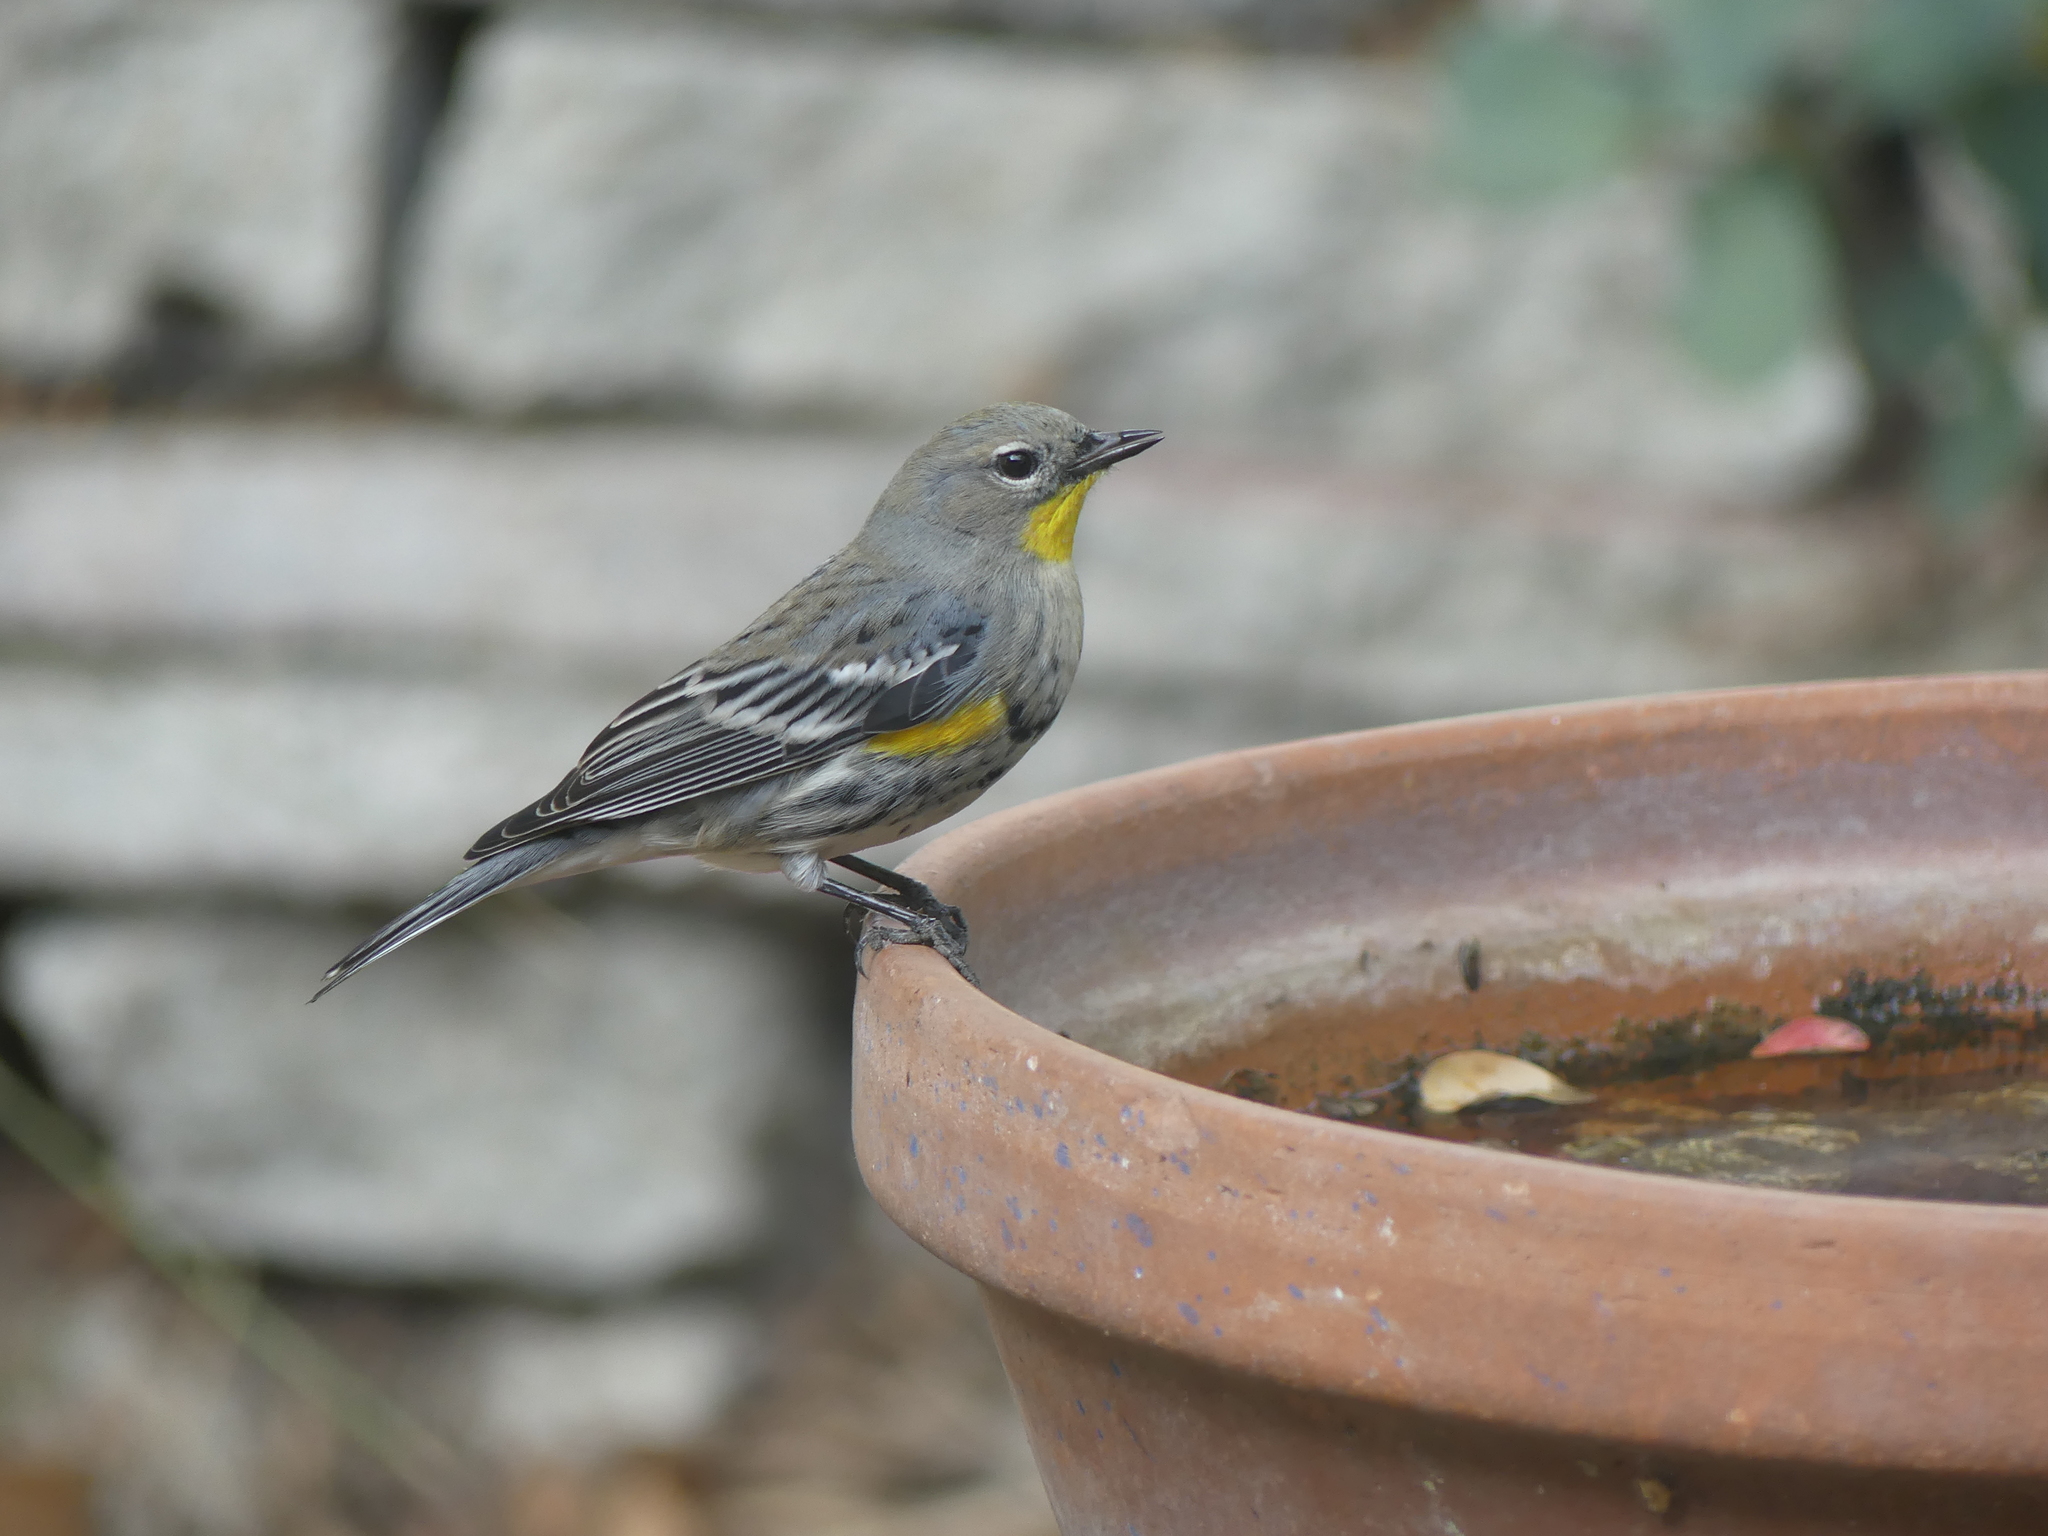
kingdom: Animalia
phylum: Chordata
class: Aves
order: Passeriformes
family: Parulidae
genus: Setophaga
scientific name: Setophaga coronata
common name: Myrtle warbler
